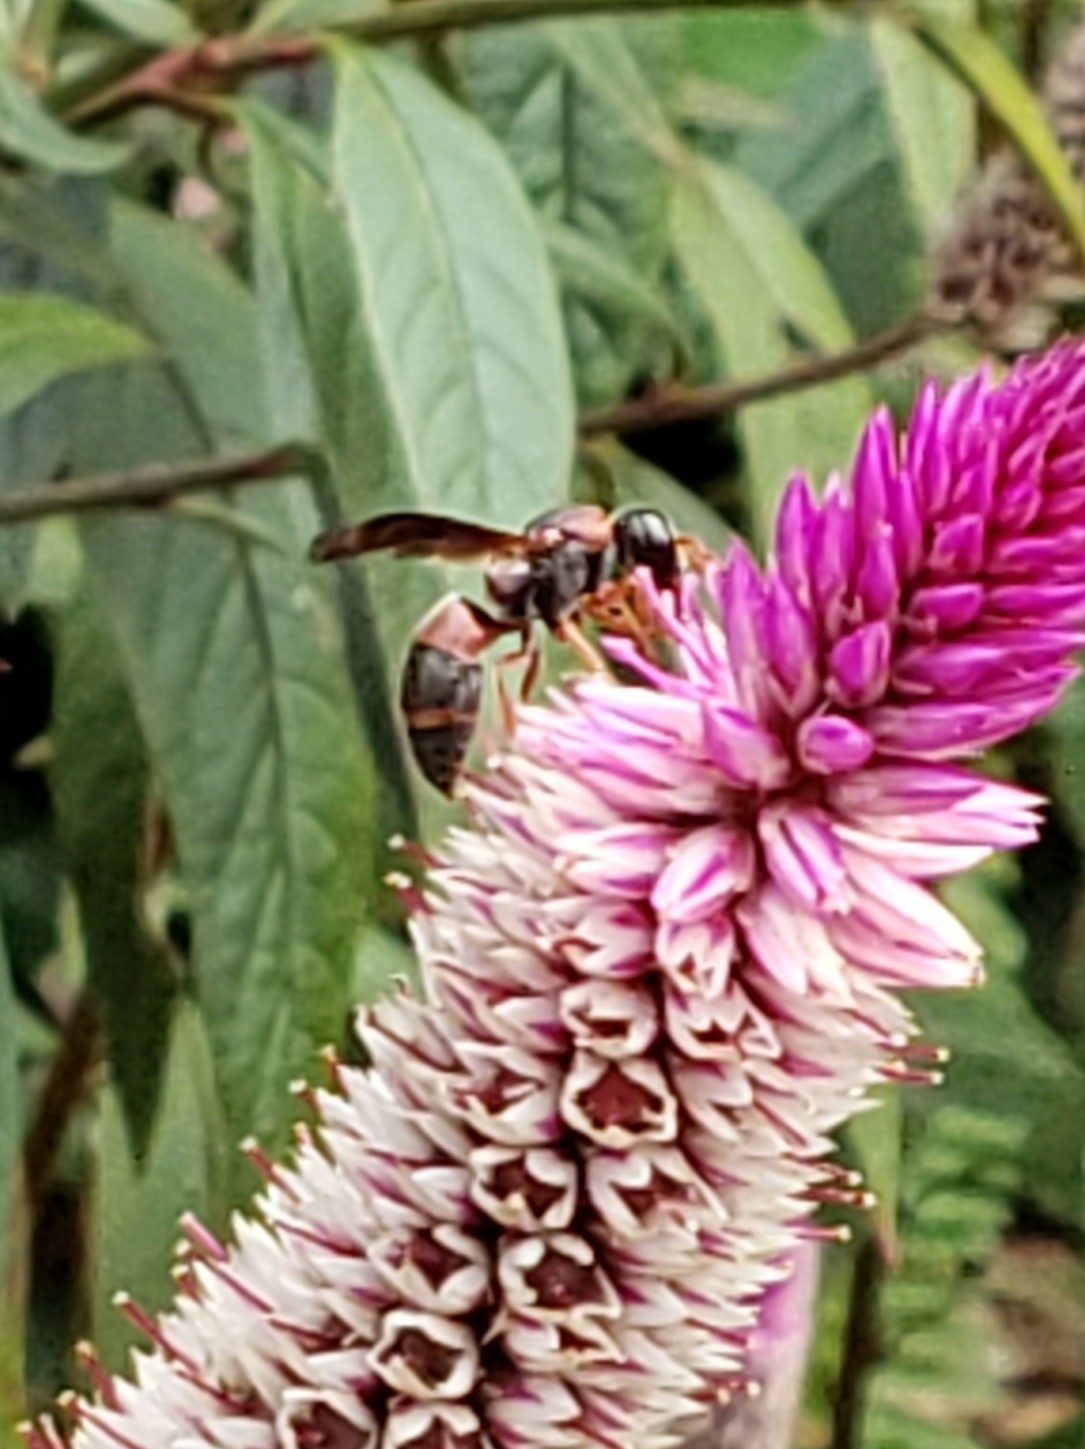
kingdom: Animalia
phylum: Arthropoda
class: Insecta
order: Hymenoptera
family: Eumenidae
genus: Pachodynerus
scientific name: Pachodynerus erynnis
